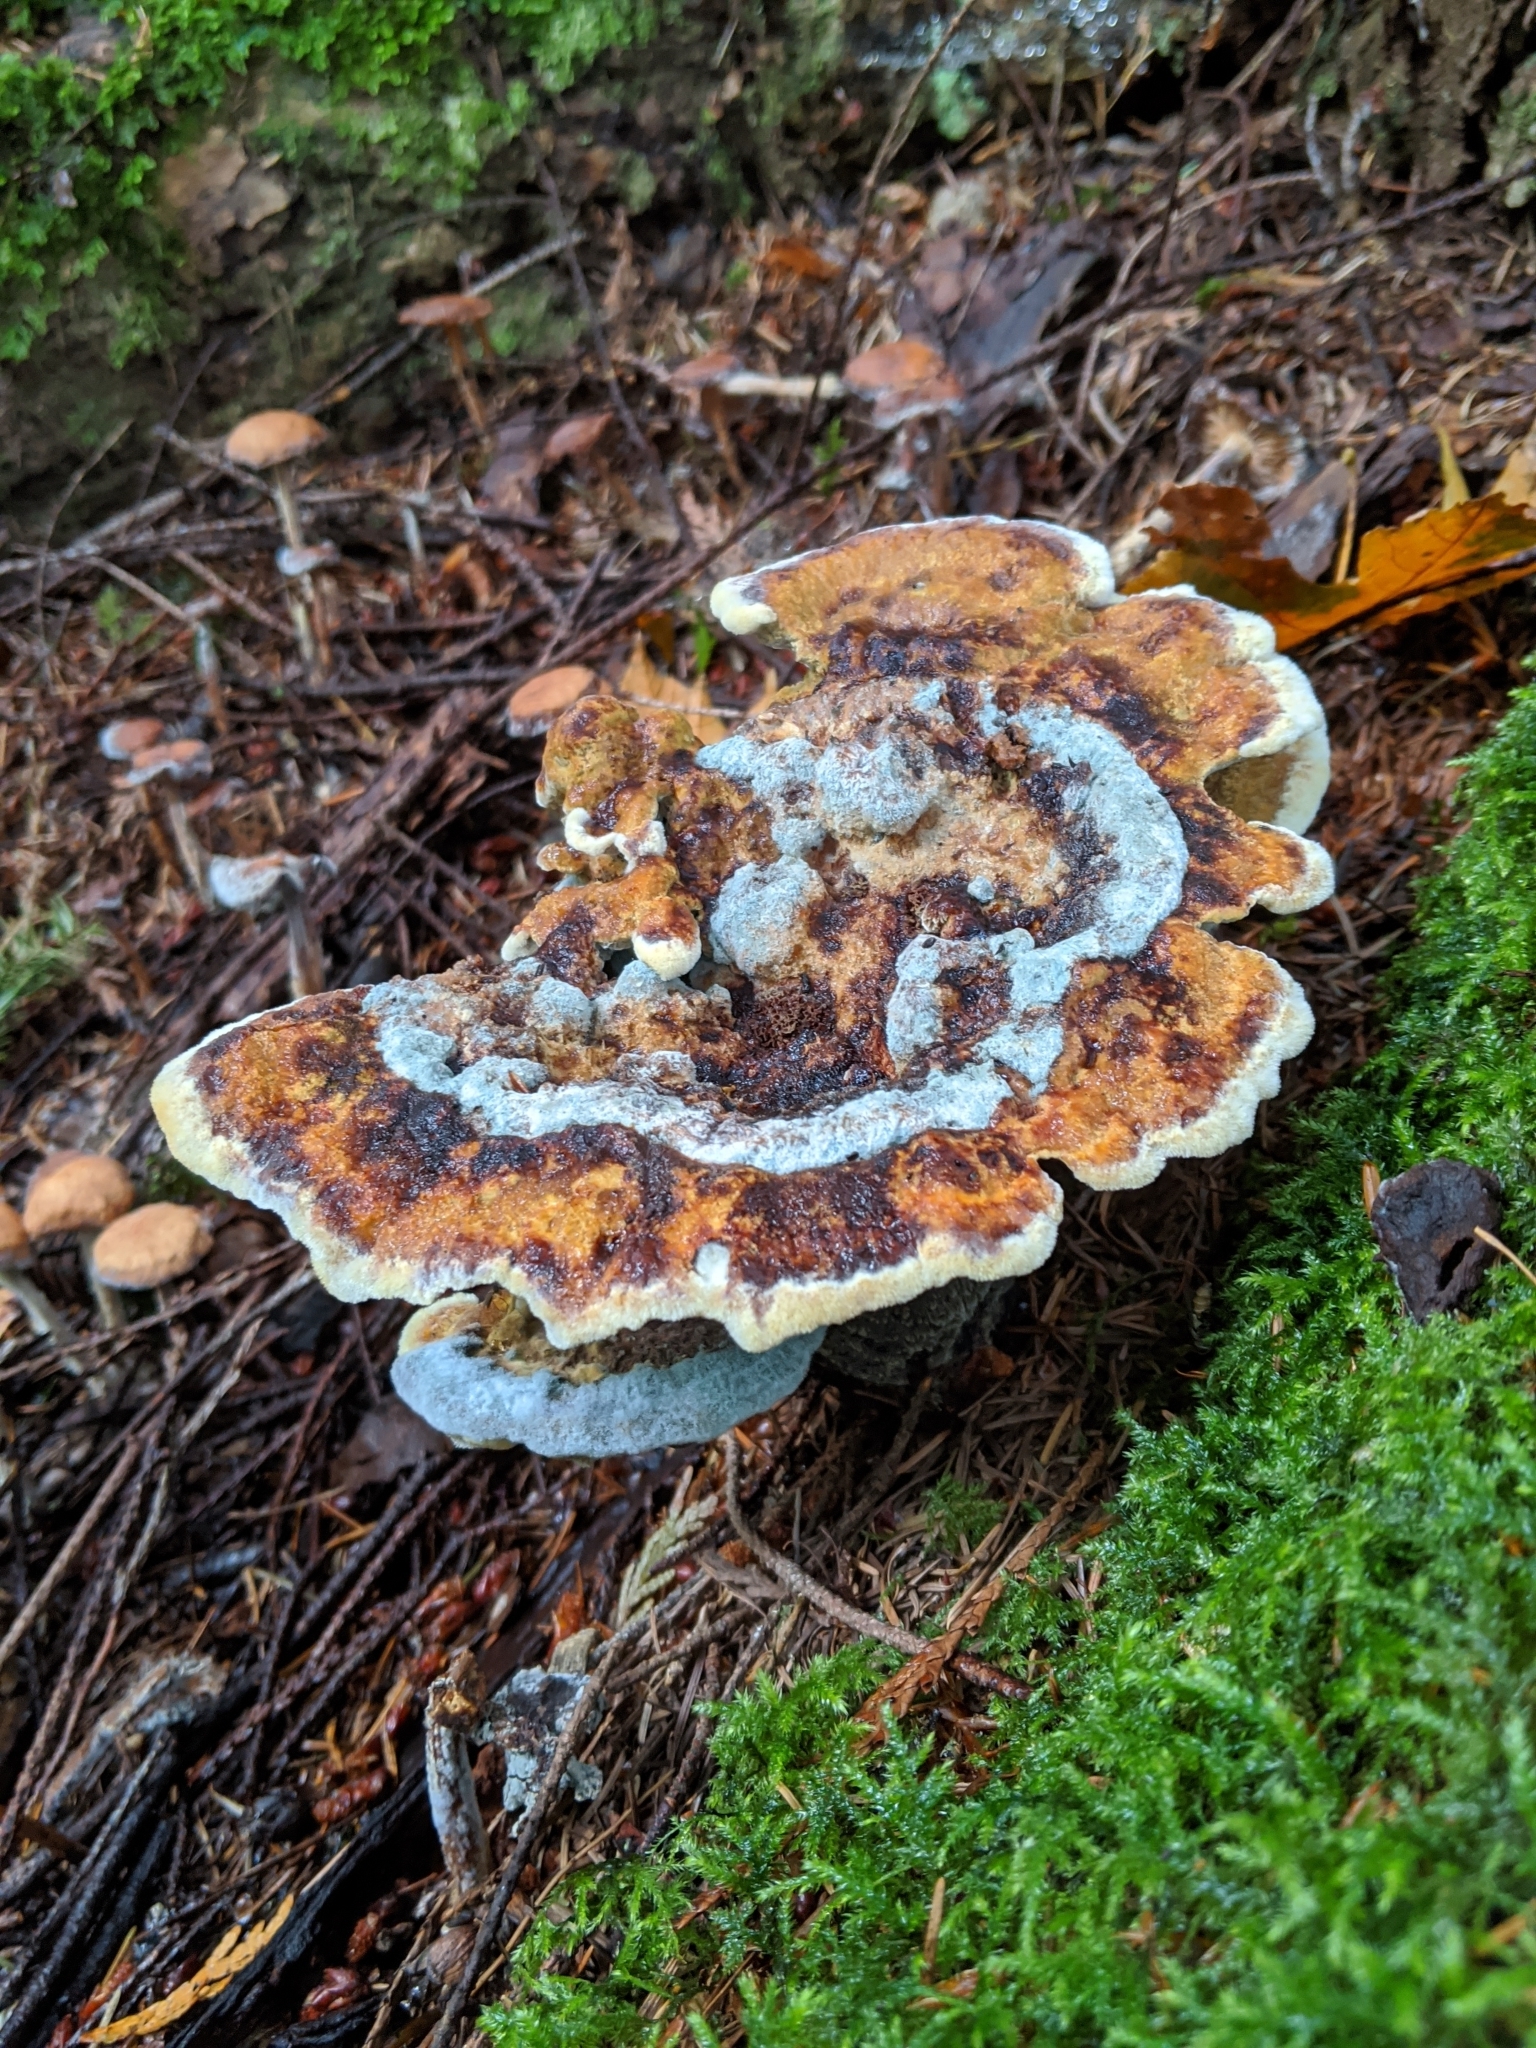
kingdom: Fungi
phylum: Basidiomycota
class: Agaricomycetes
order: Polyporales
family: Laetiporaceae
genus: Phaeolus
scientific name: Phaeolus schweinitzii
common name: Dyer's mazegill
